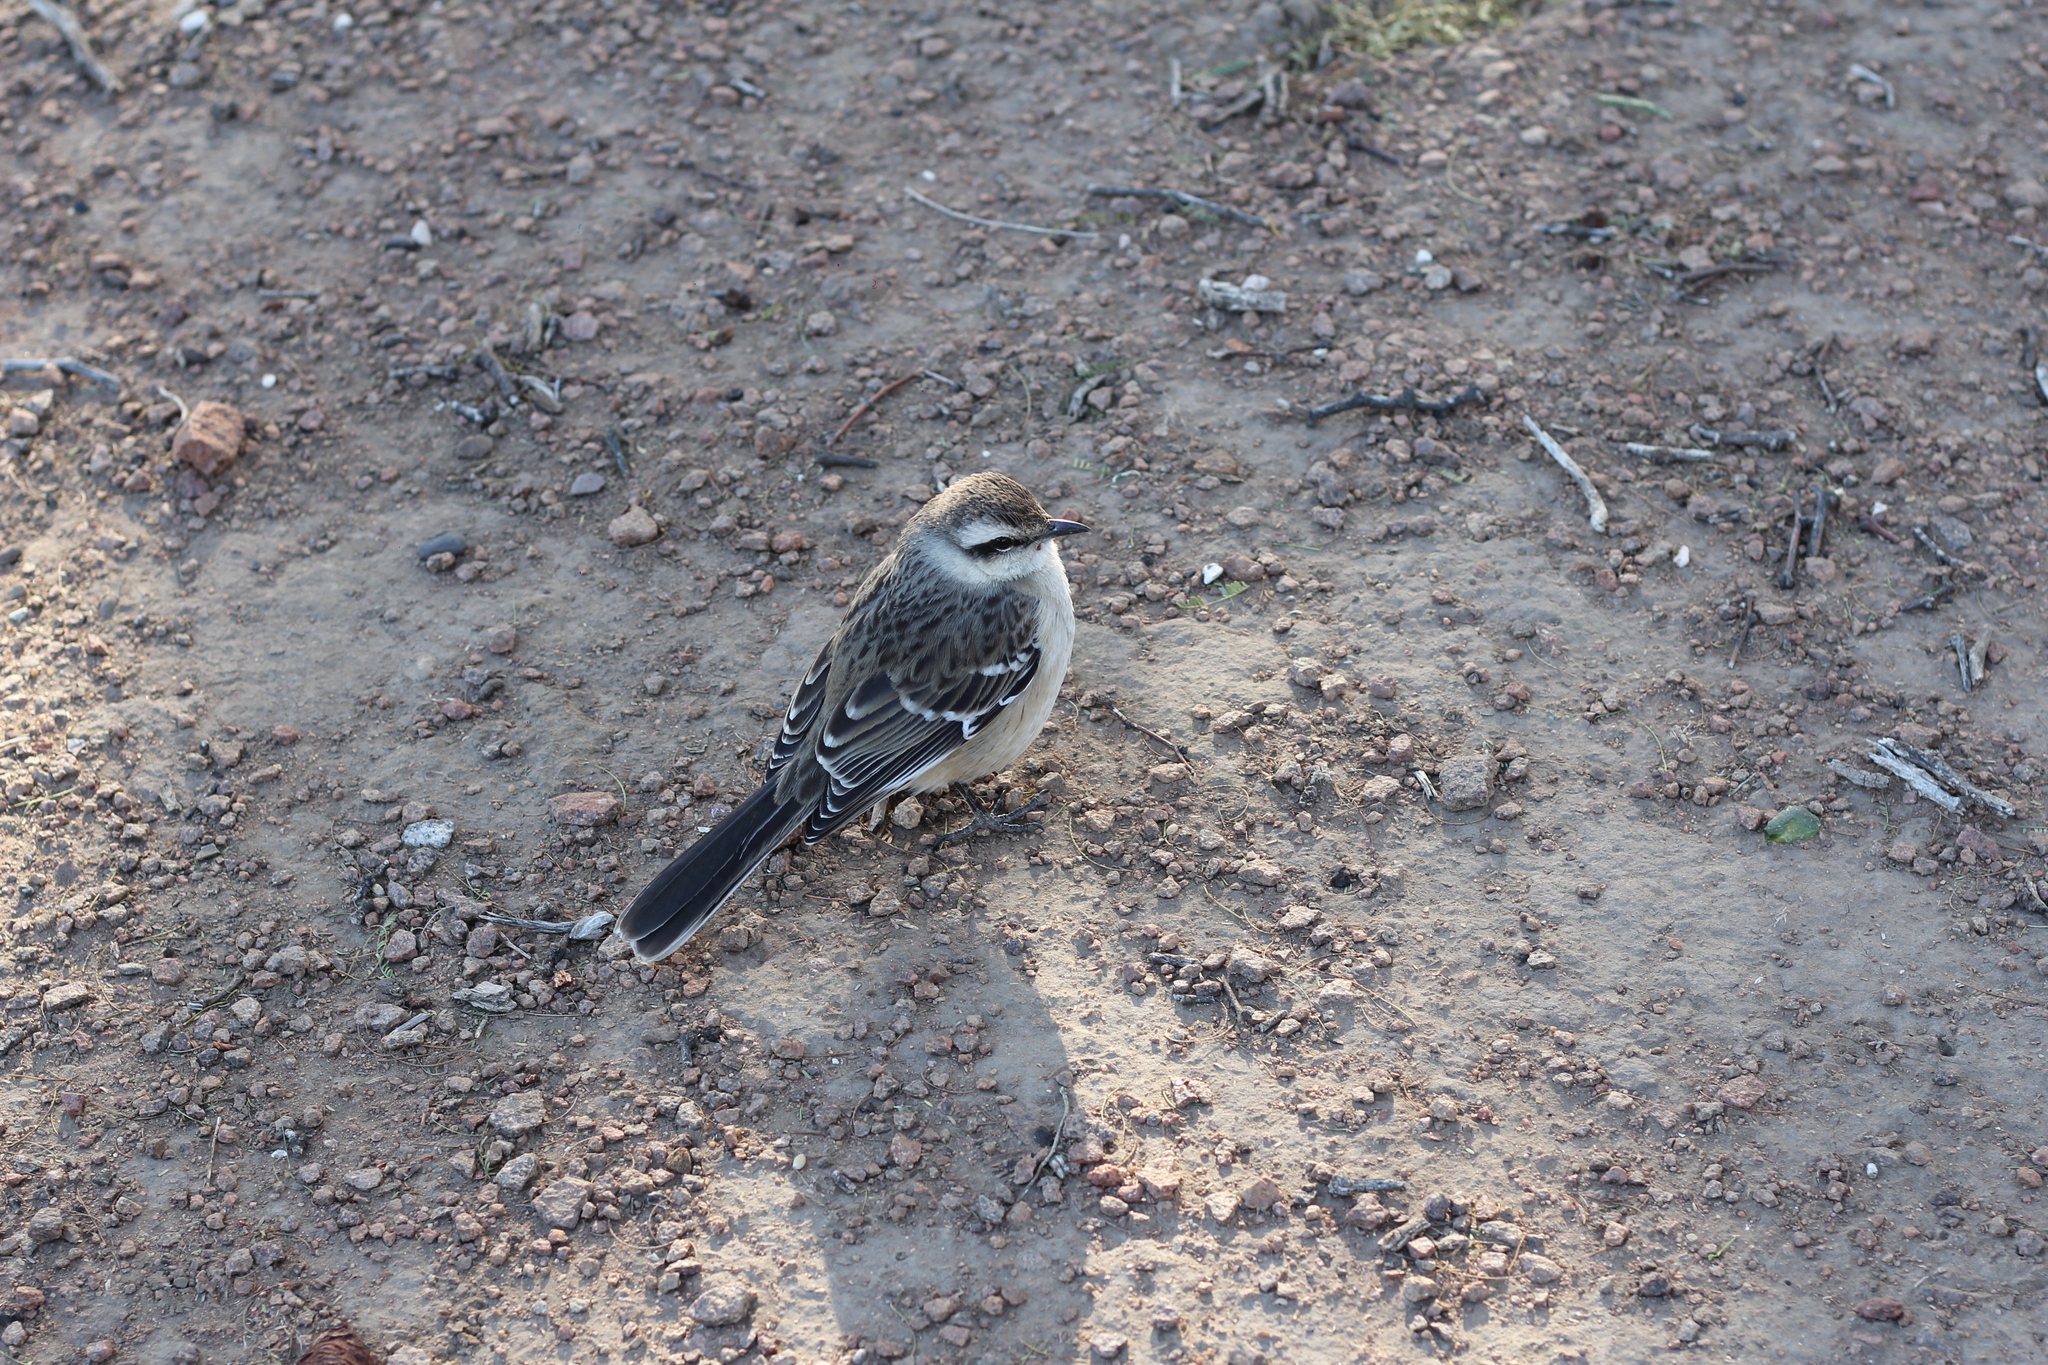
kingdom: Animalia
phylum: Chordata
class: Aves
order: Passeriformes
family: Mimidae
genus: Mimus
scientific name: Mimus saturninus
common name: Chalk-browed mockingbird
